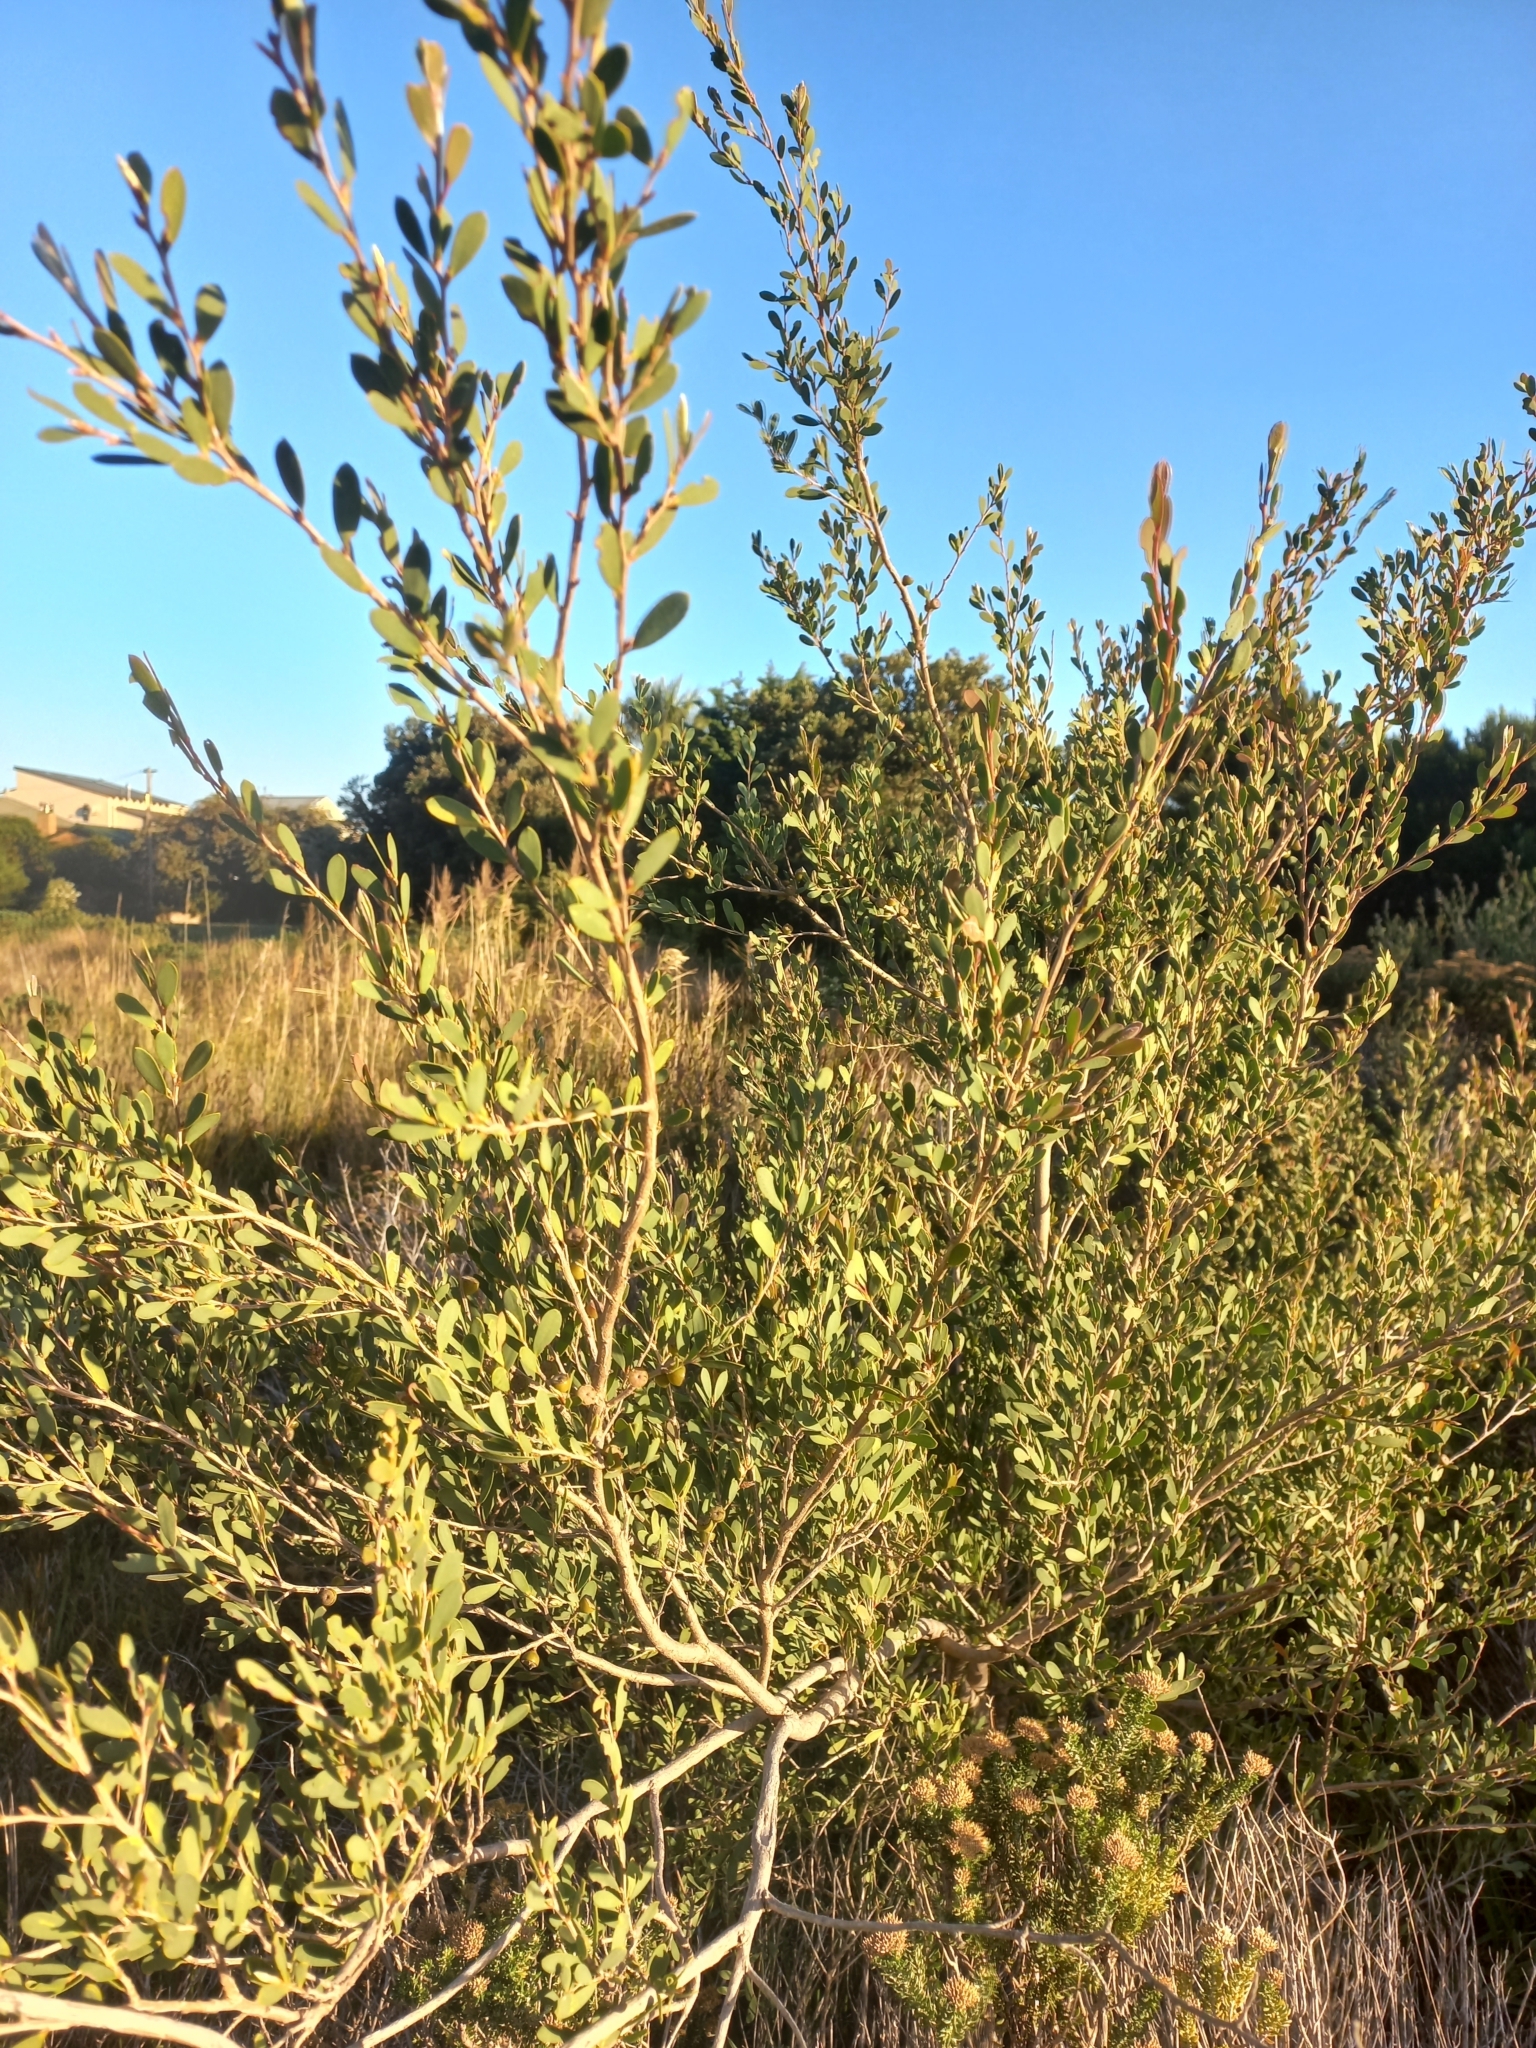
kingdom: Plantae
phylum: Tracheophyta
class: Magnoliopsida
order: Myrtales
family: Myrtaceae
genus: Leptospermum
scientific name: Leptospermum laevigatum
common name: Australian teatree
